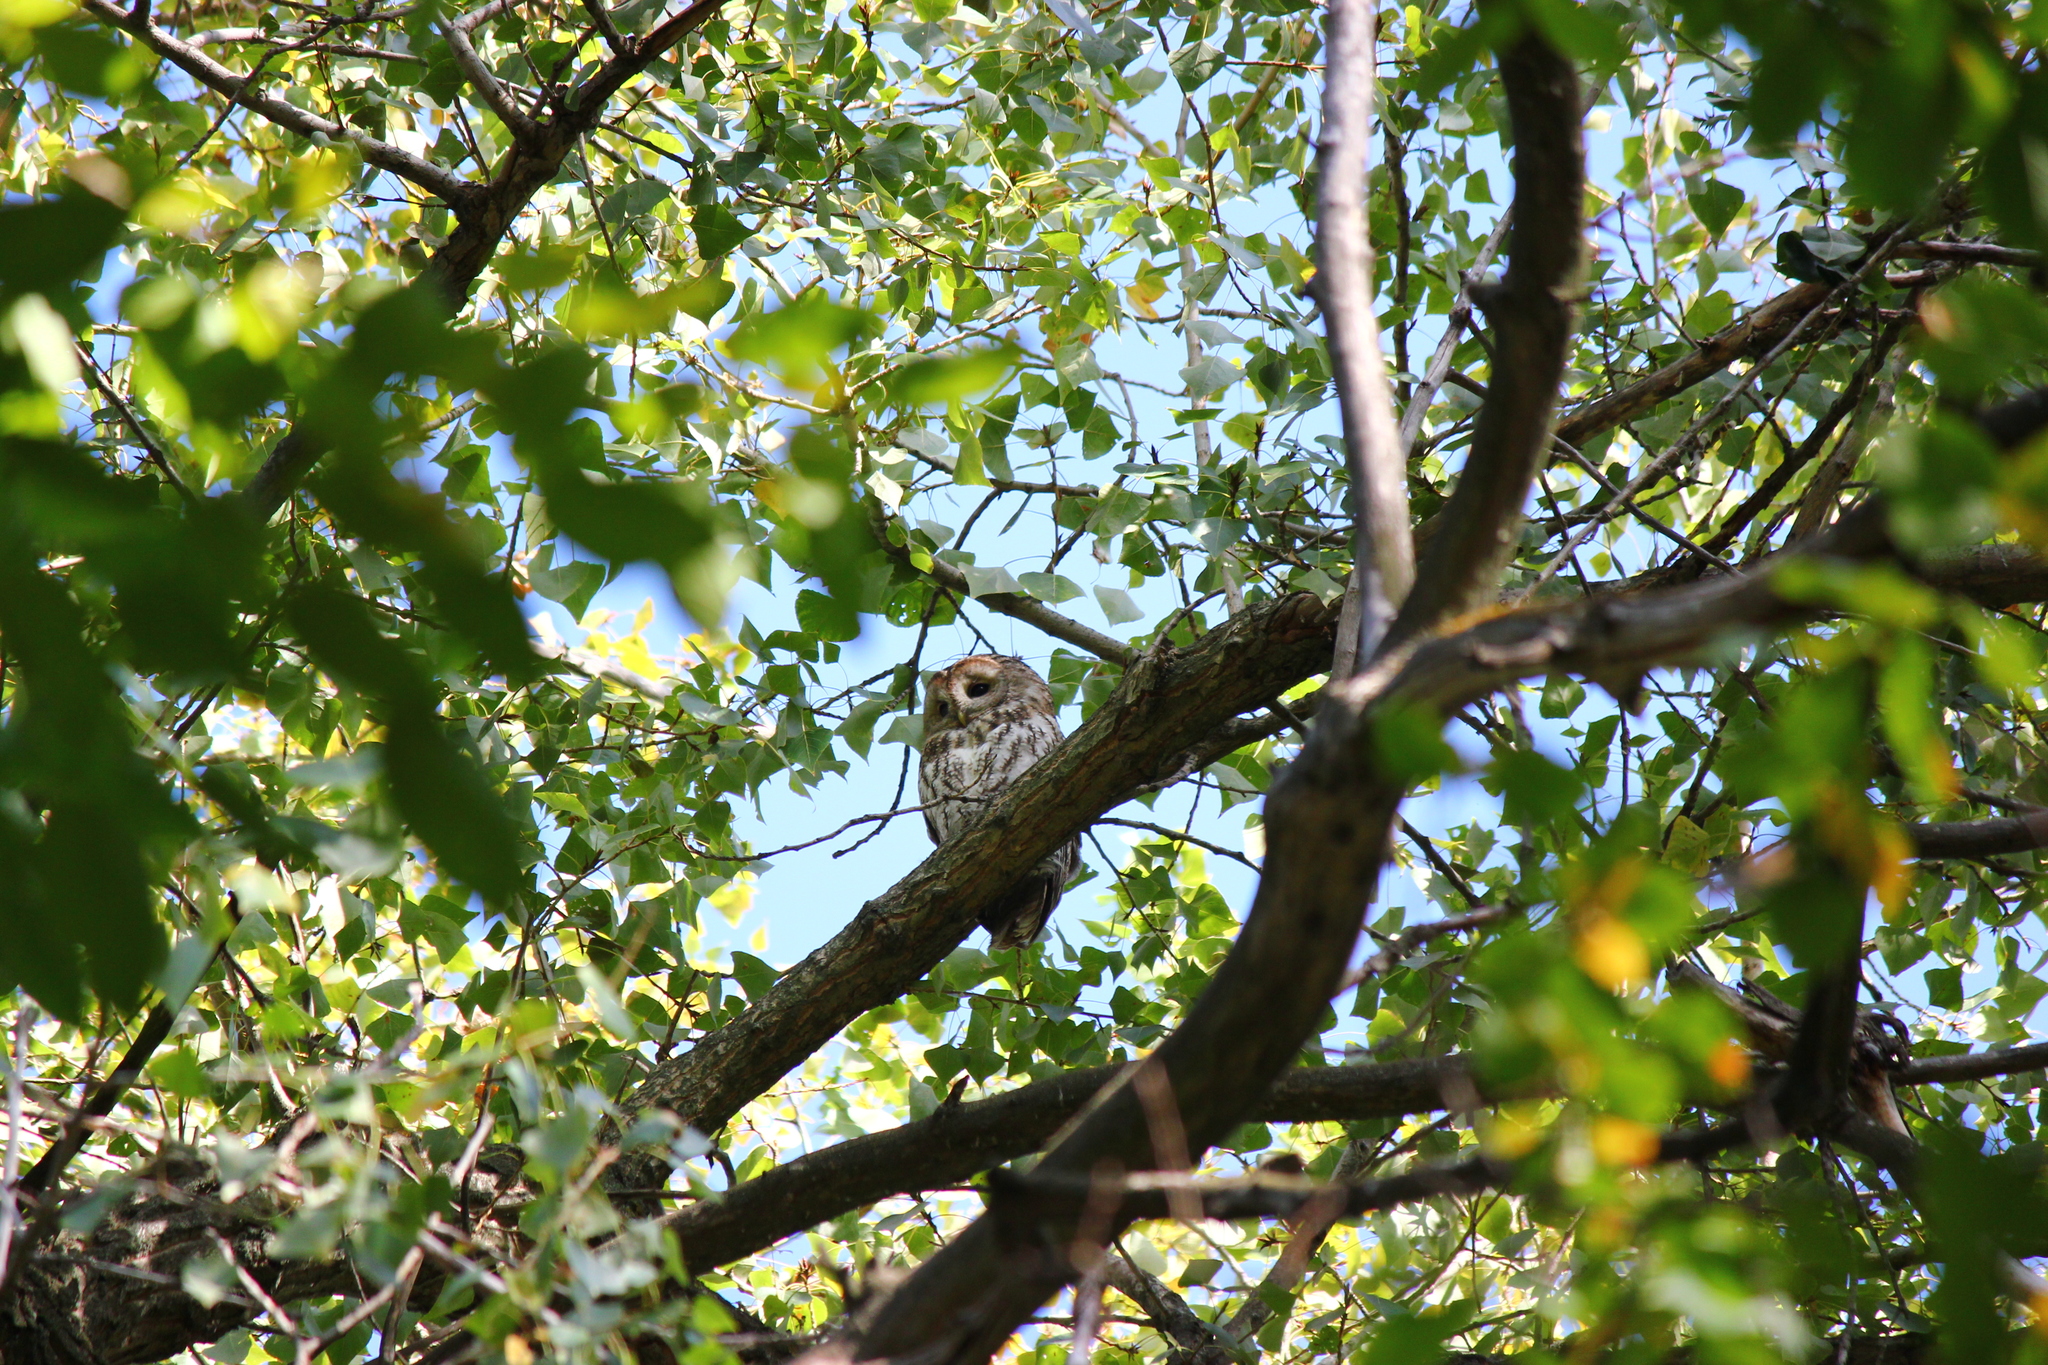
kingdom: Animalia
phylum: Chordata
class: Aves
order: Strigiformes
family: Strigidae
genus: Strix
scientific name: Strix aluco
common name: Tawny owl
